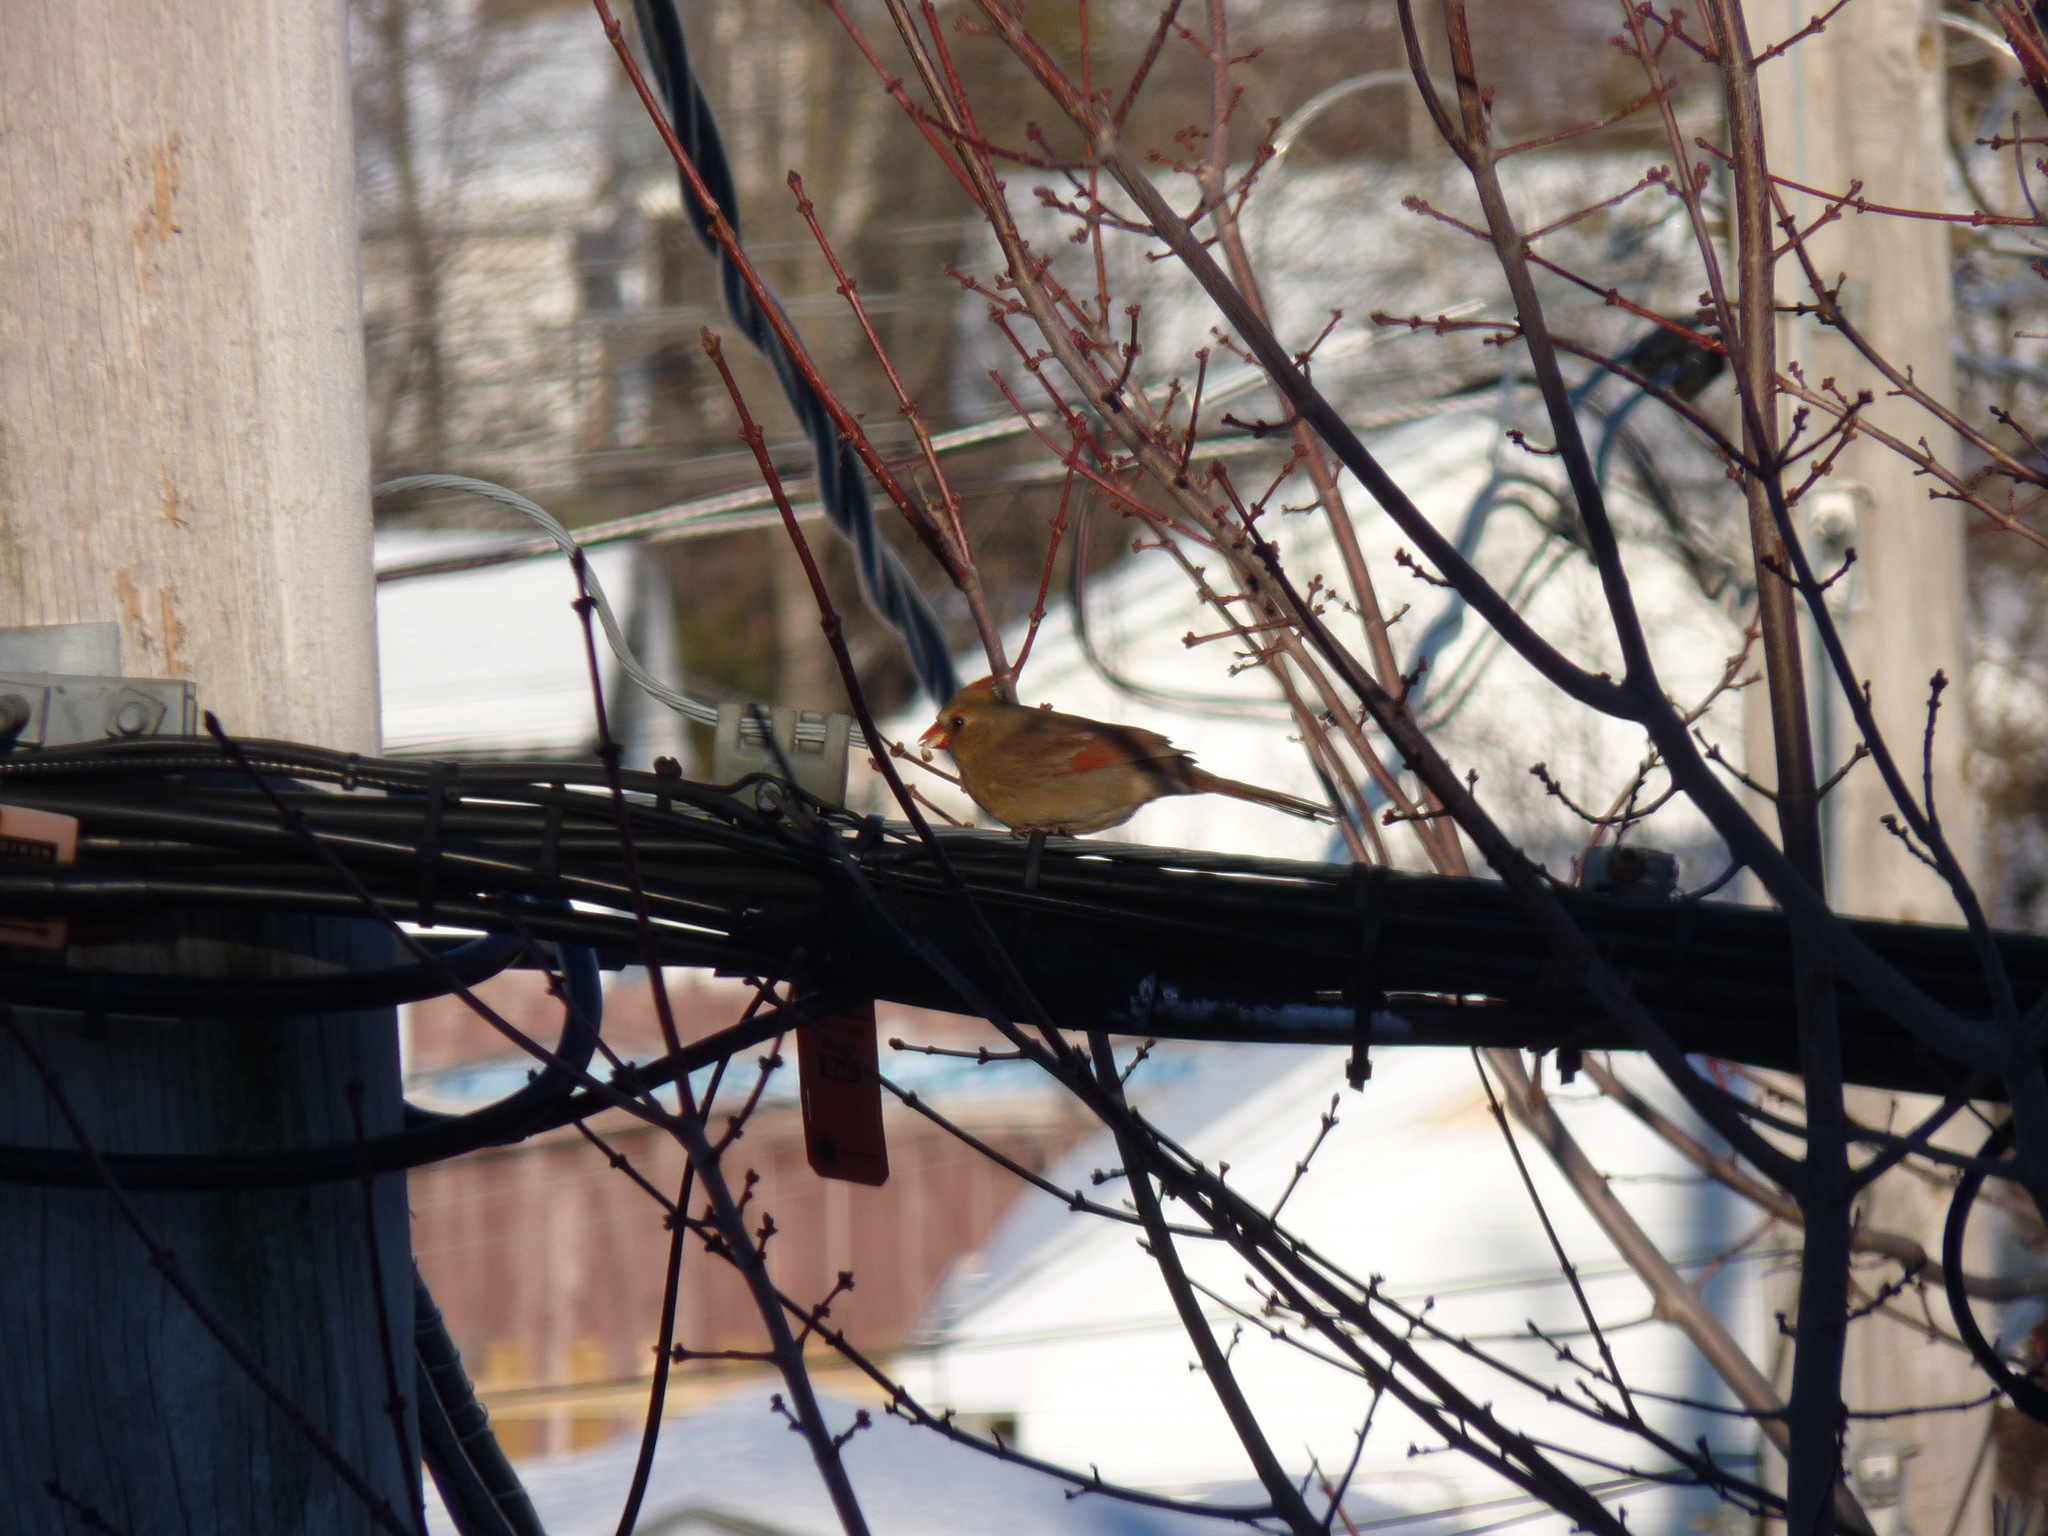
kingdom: Animalia
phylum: Chordata
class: Aves
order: Passeriformes
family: Cardinalidae
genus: Cardinalis
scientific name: Cardinalis cardinalis
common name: Northern cardinal
